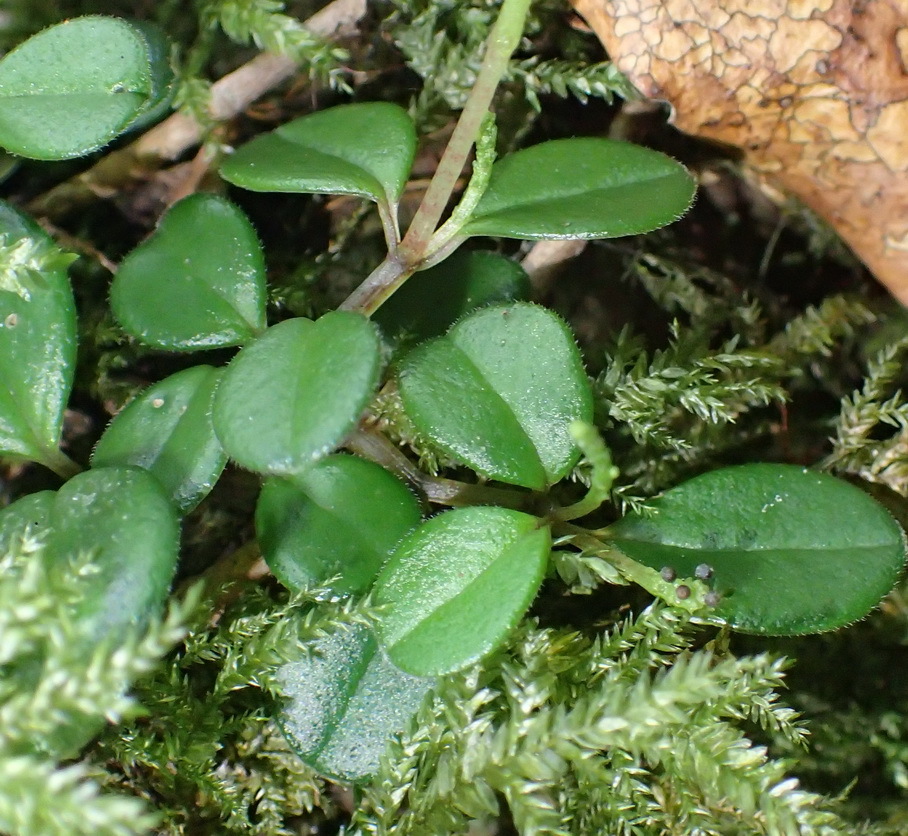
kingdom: Plantae
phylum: Tracheophyta
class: Magnoliopsida
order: Piperales
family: Piperaceae
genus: Peperomia
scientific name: Peperomia retusa
